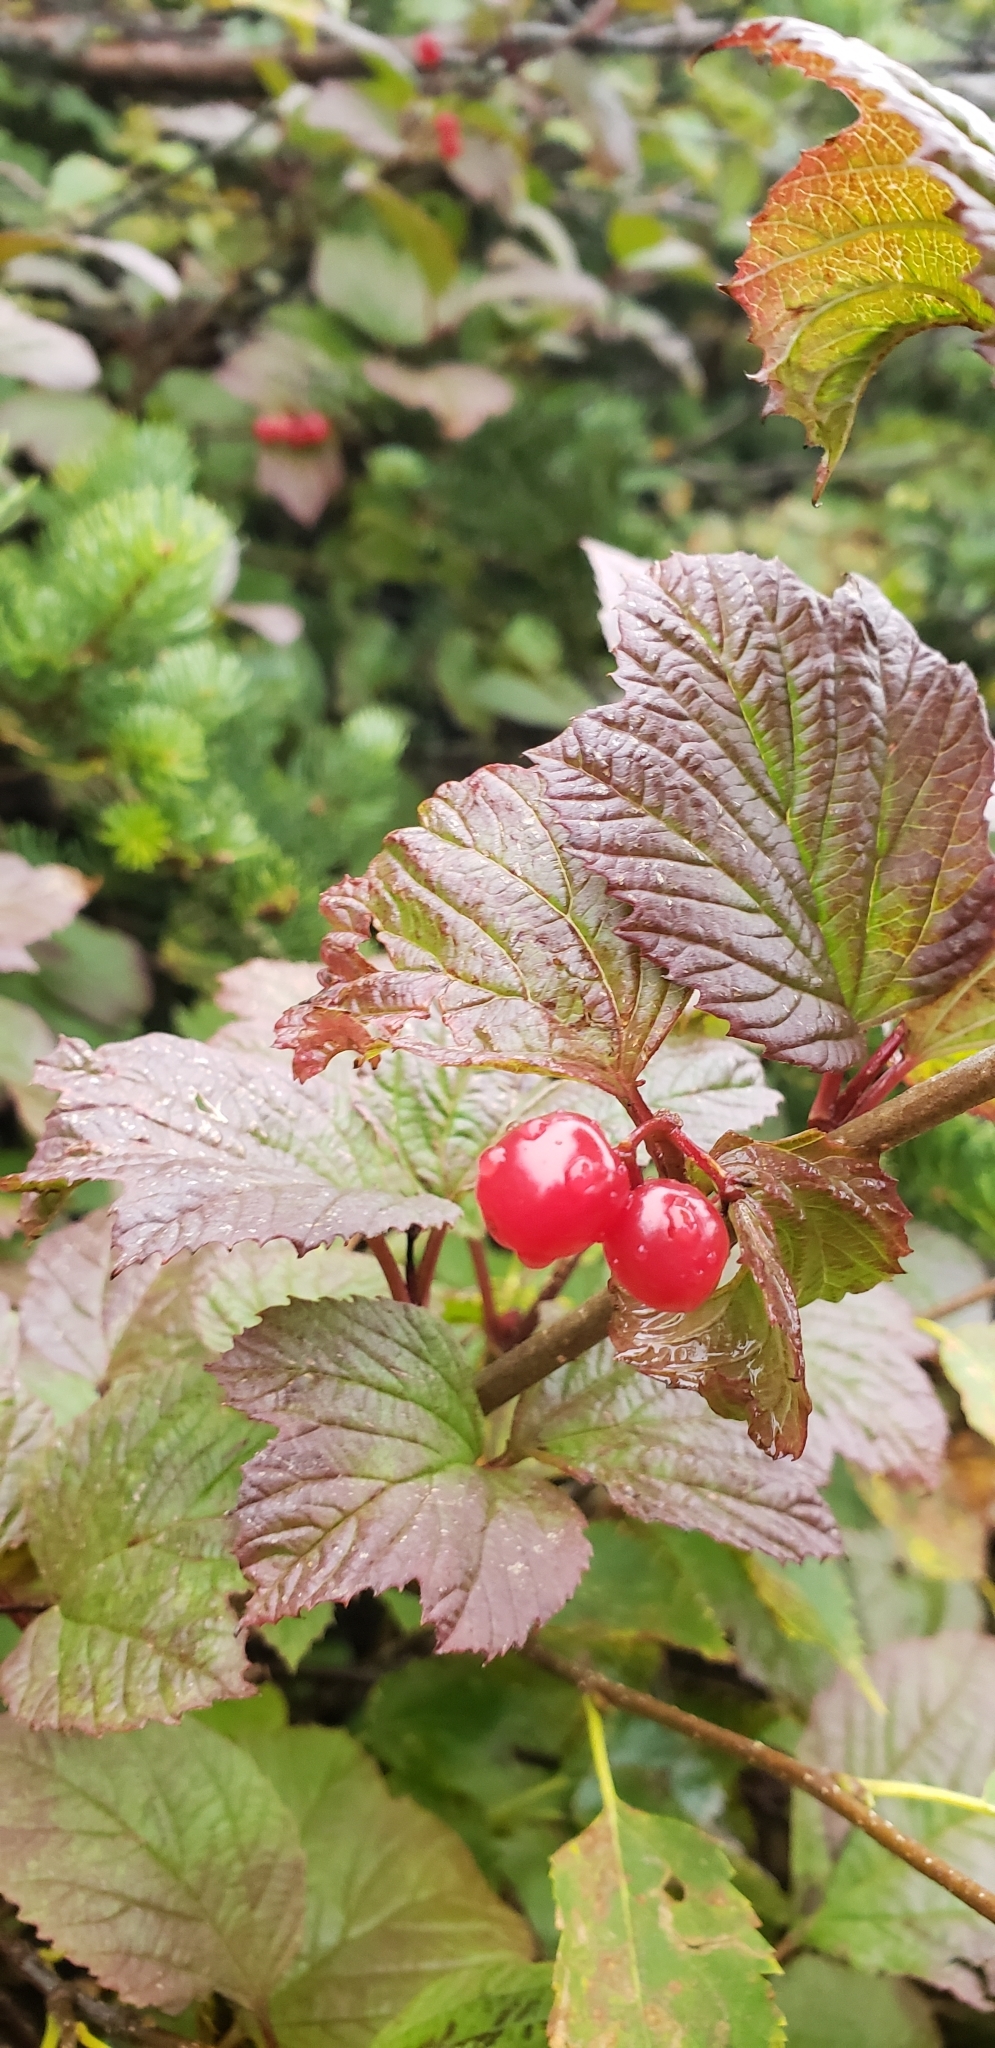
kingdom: Plantae
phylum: Tracheophyta
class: Magnoliopsida
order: Dipsacales
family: Viburnaceae
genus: Viburnum
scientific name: Viburnum opulus
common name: Guelder-rose
